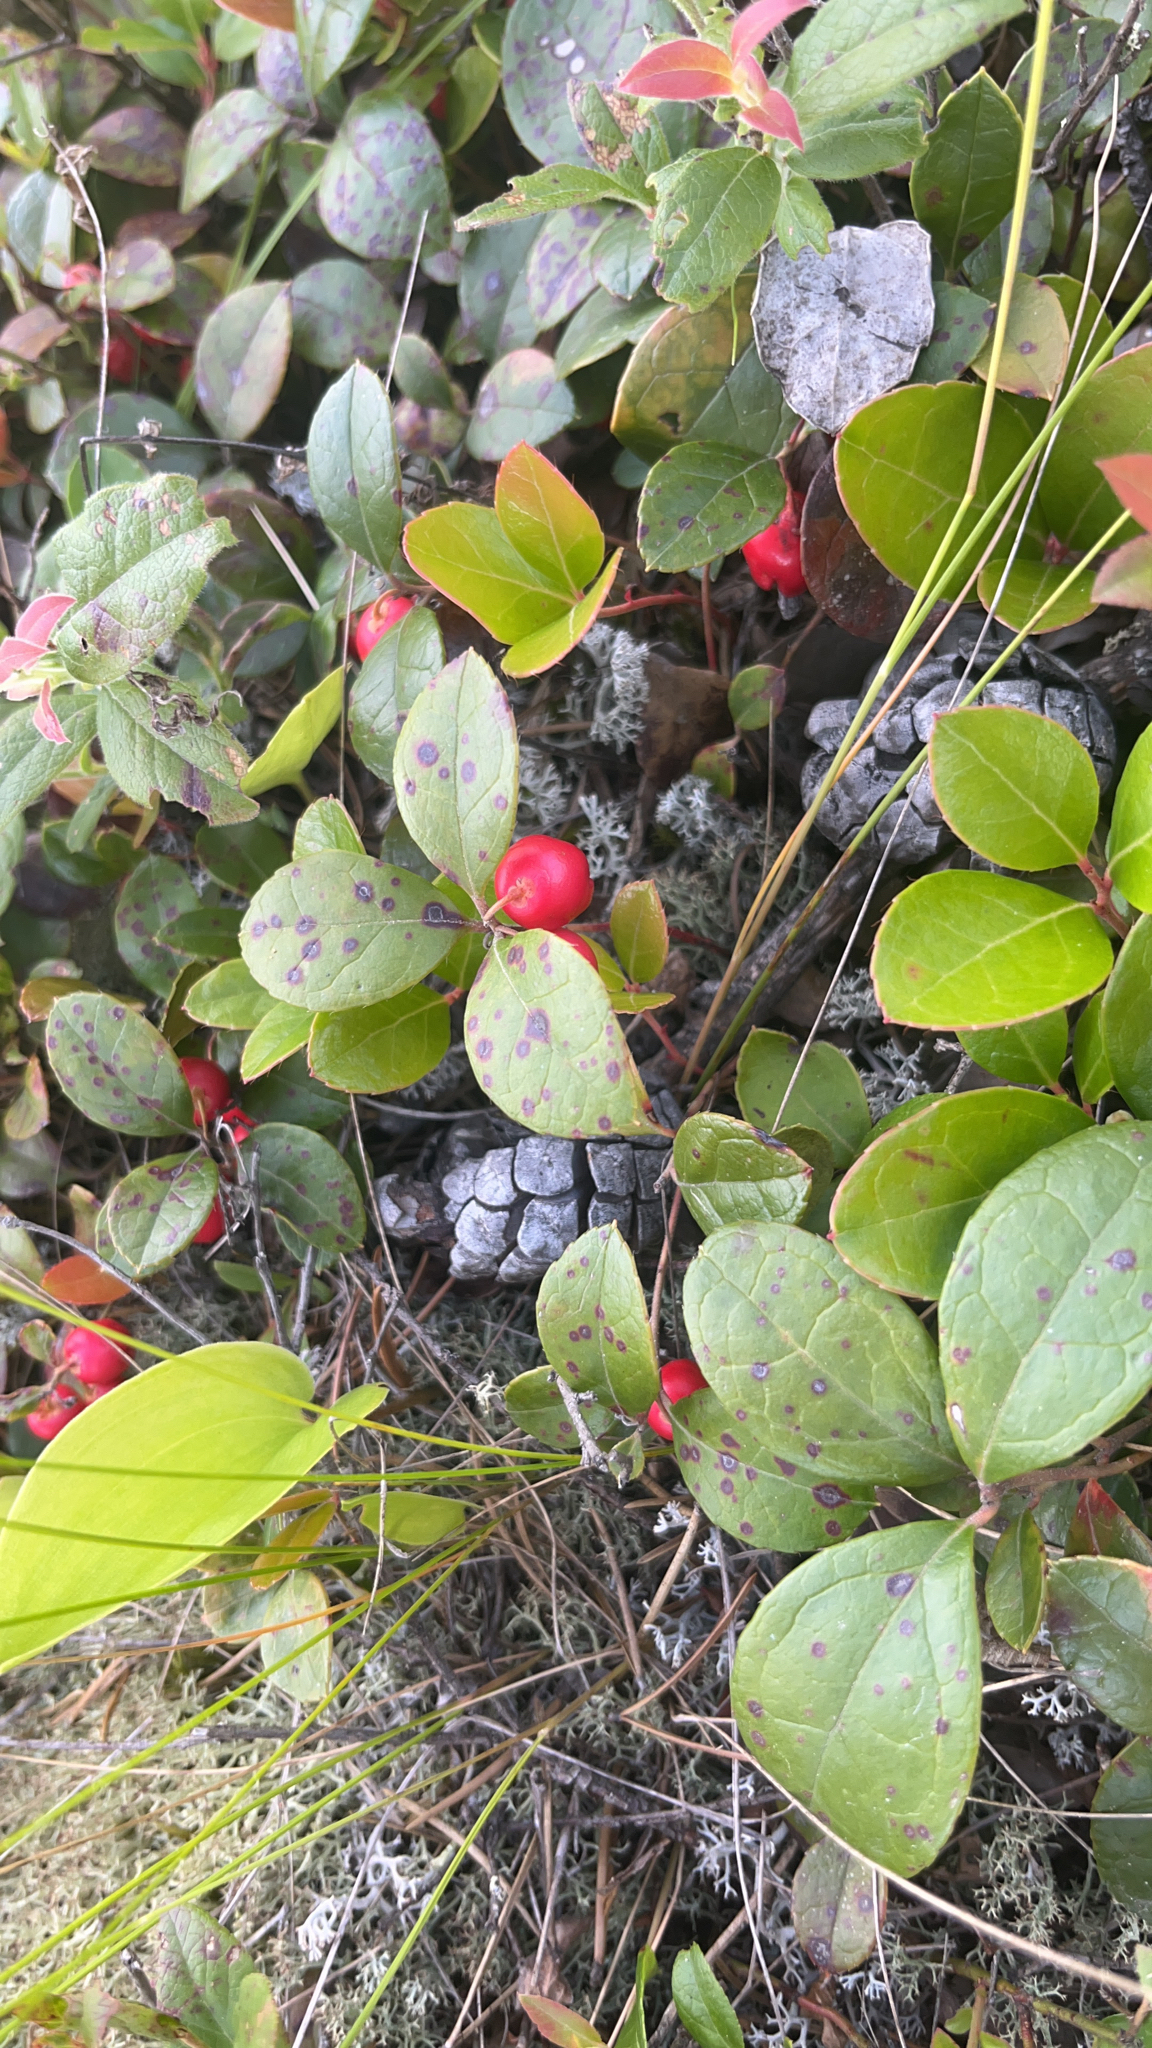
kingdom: Plantae
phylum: Tracheophyta
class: Magnoliopsida
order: Ericales
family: Ericaceae
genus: Gaultheria
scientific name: Gaultheria procumbens
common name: Checkerberry
